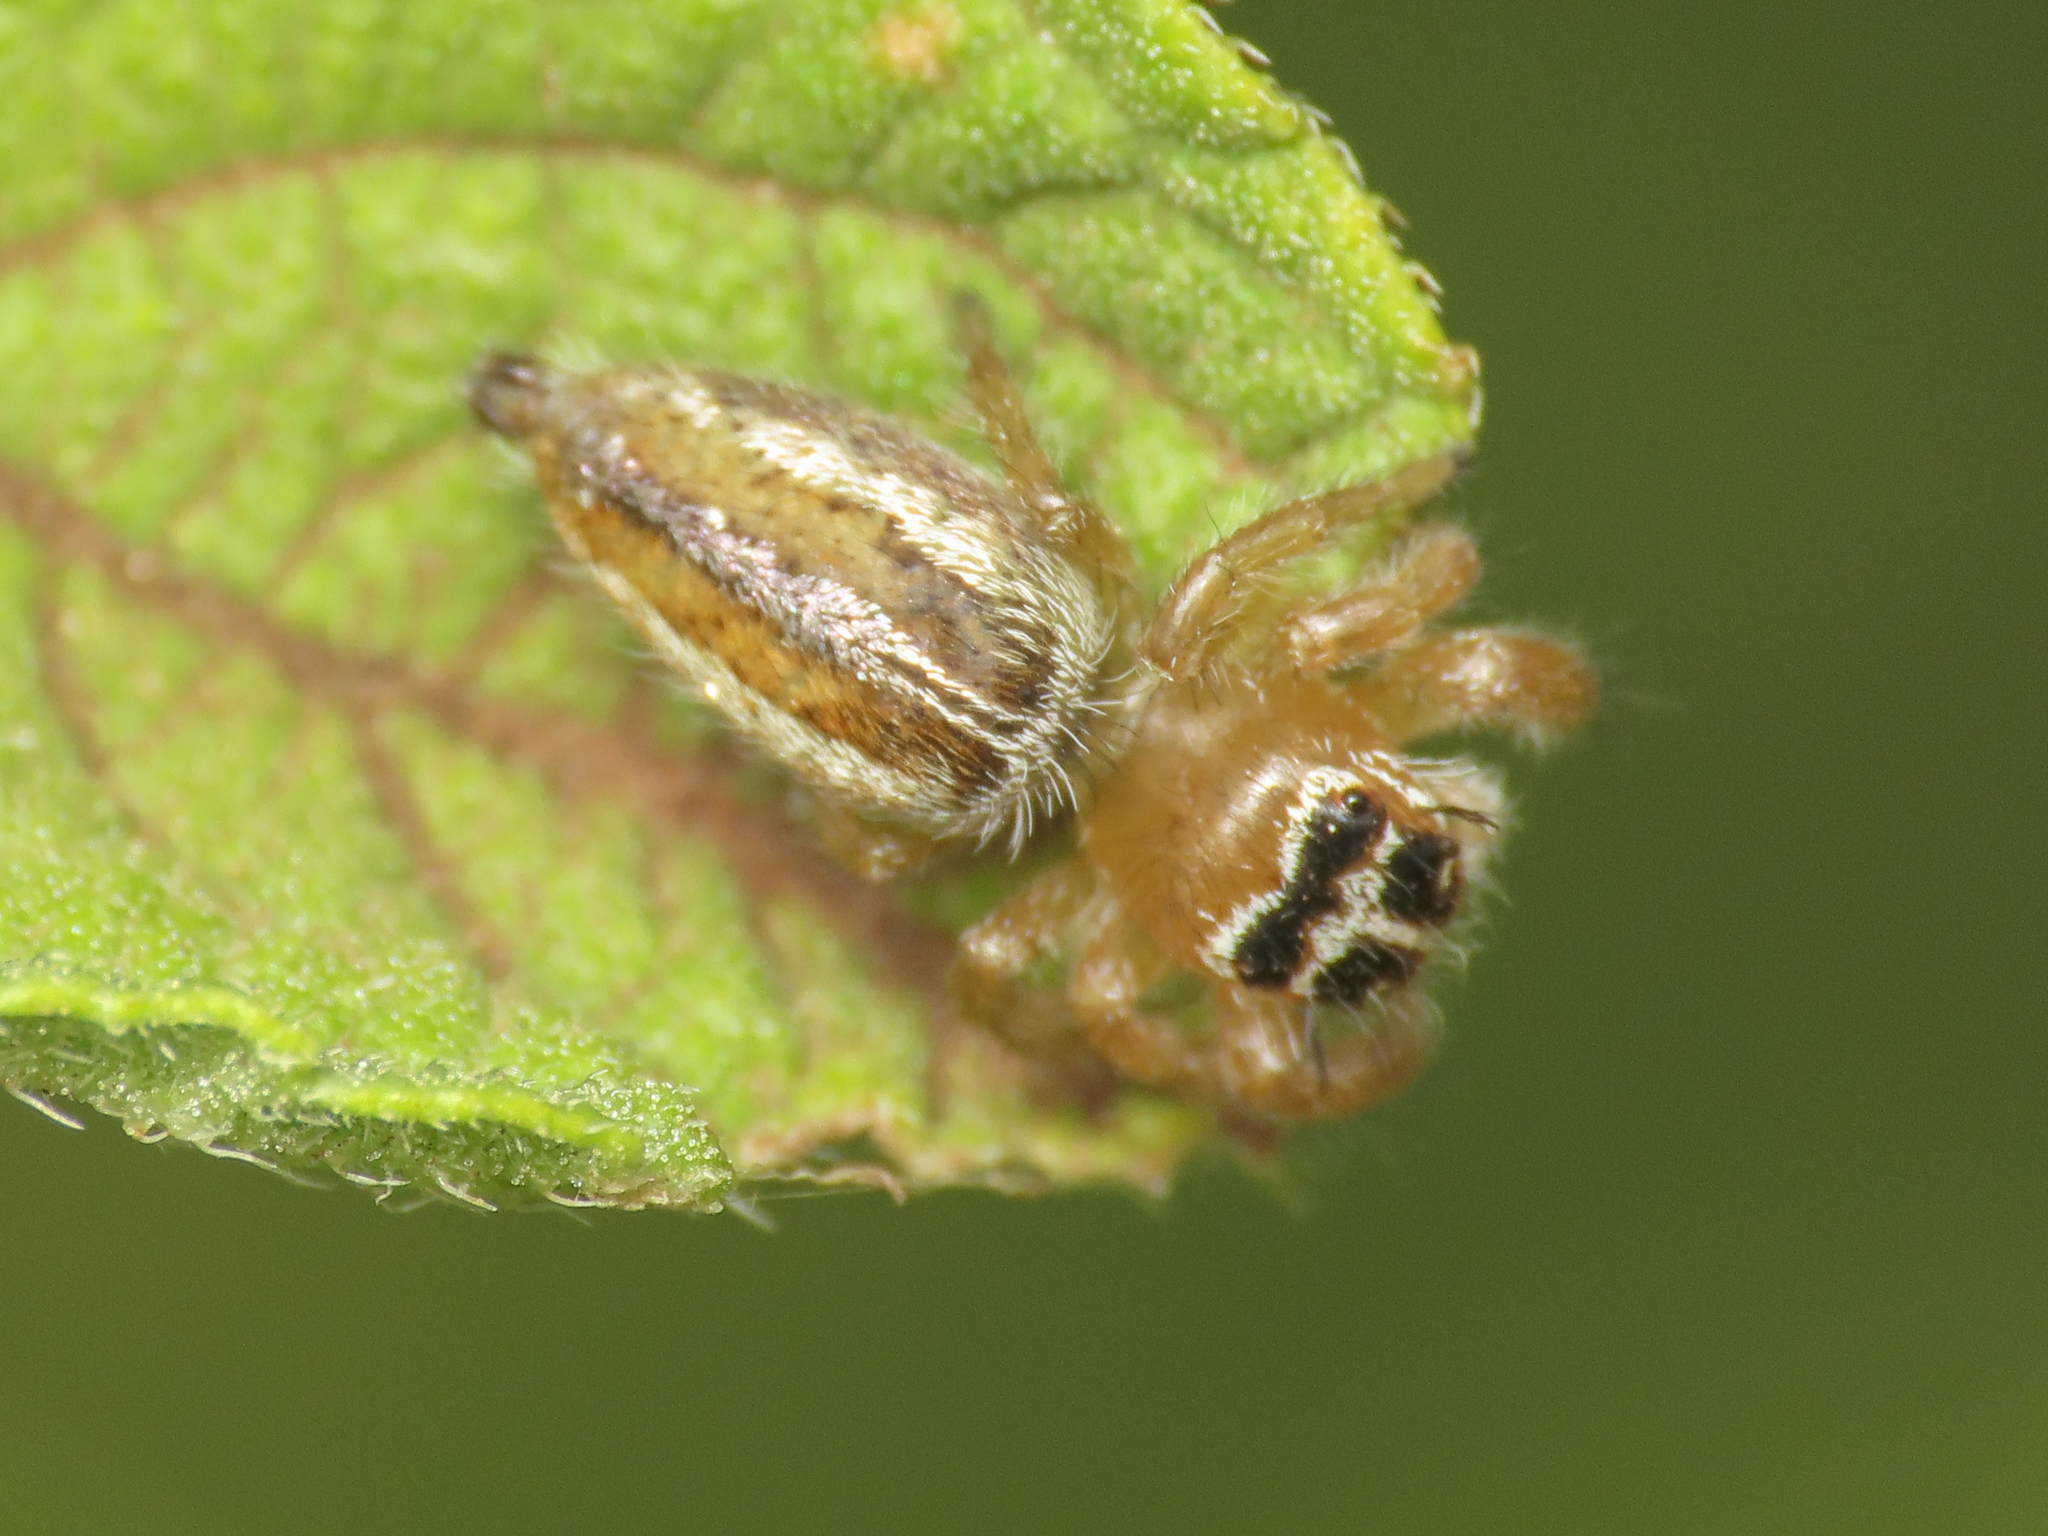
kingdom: Animalia
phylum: Arthropoda
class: Arachnida
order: Araneae
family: Salticidae
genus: Thyene
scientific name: Thyene inflata
